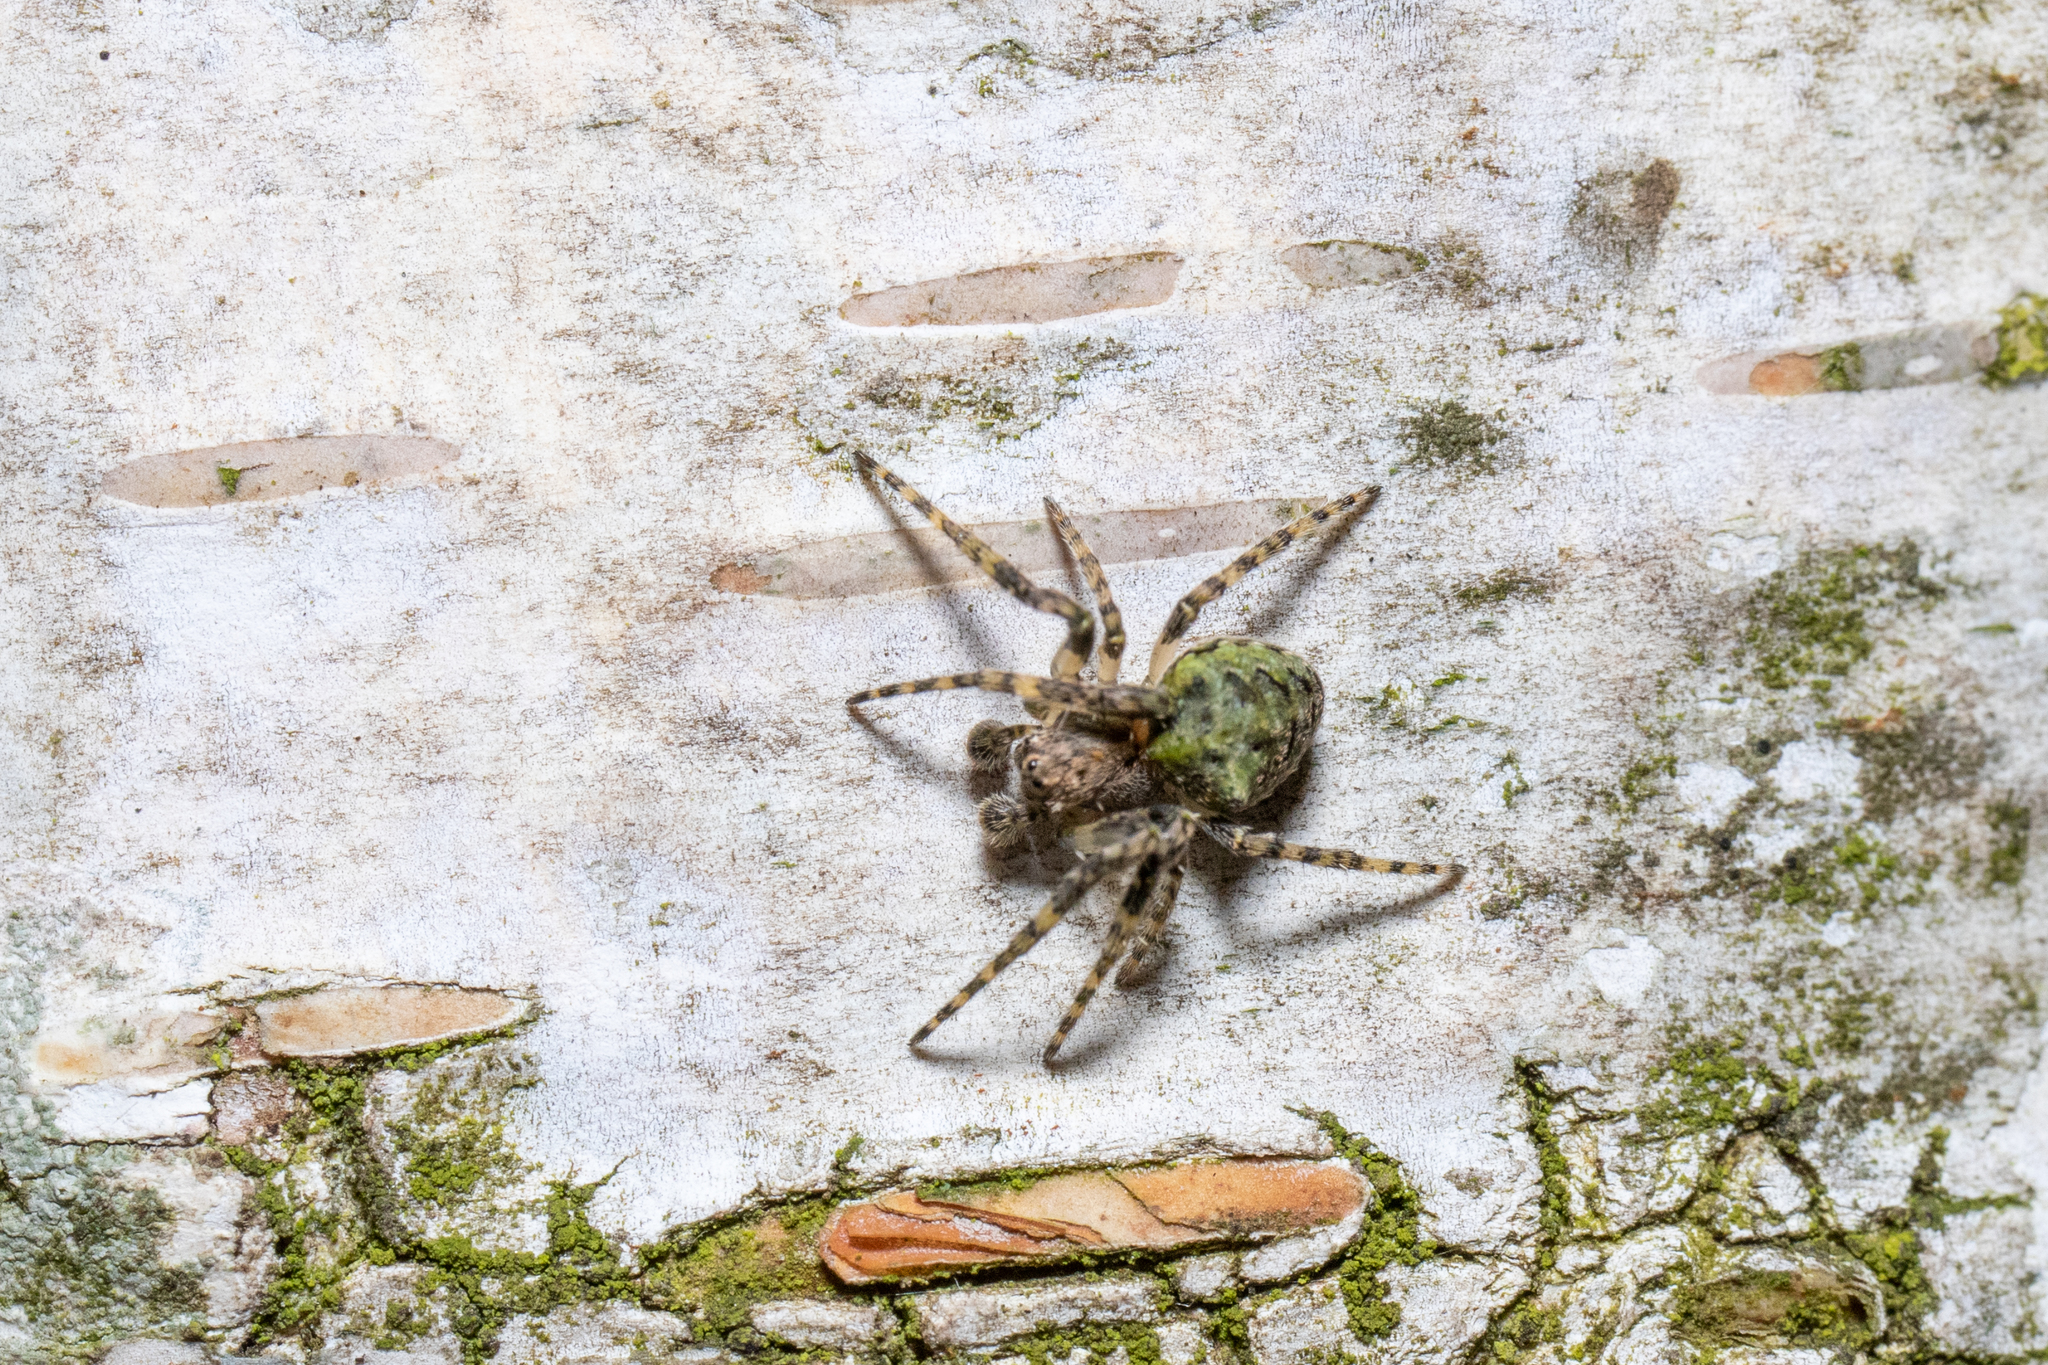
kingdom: Animalia
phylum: Arthropoda
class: Arachnida
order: Araneae
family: Araneidae
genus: Gibbaranea
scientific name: Gibbaranea gibbosa
